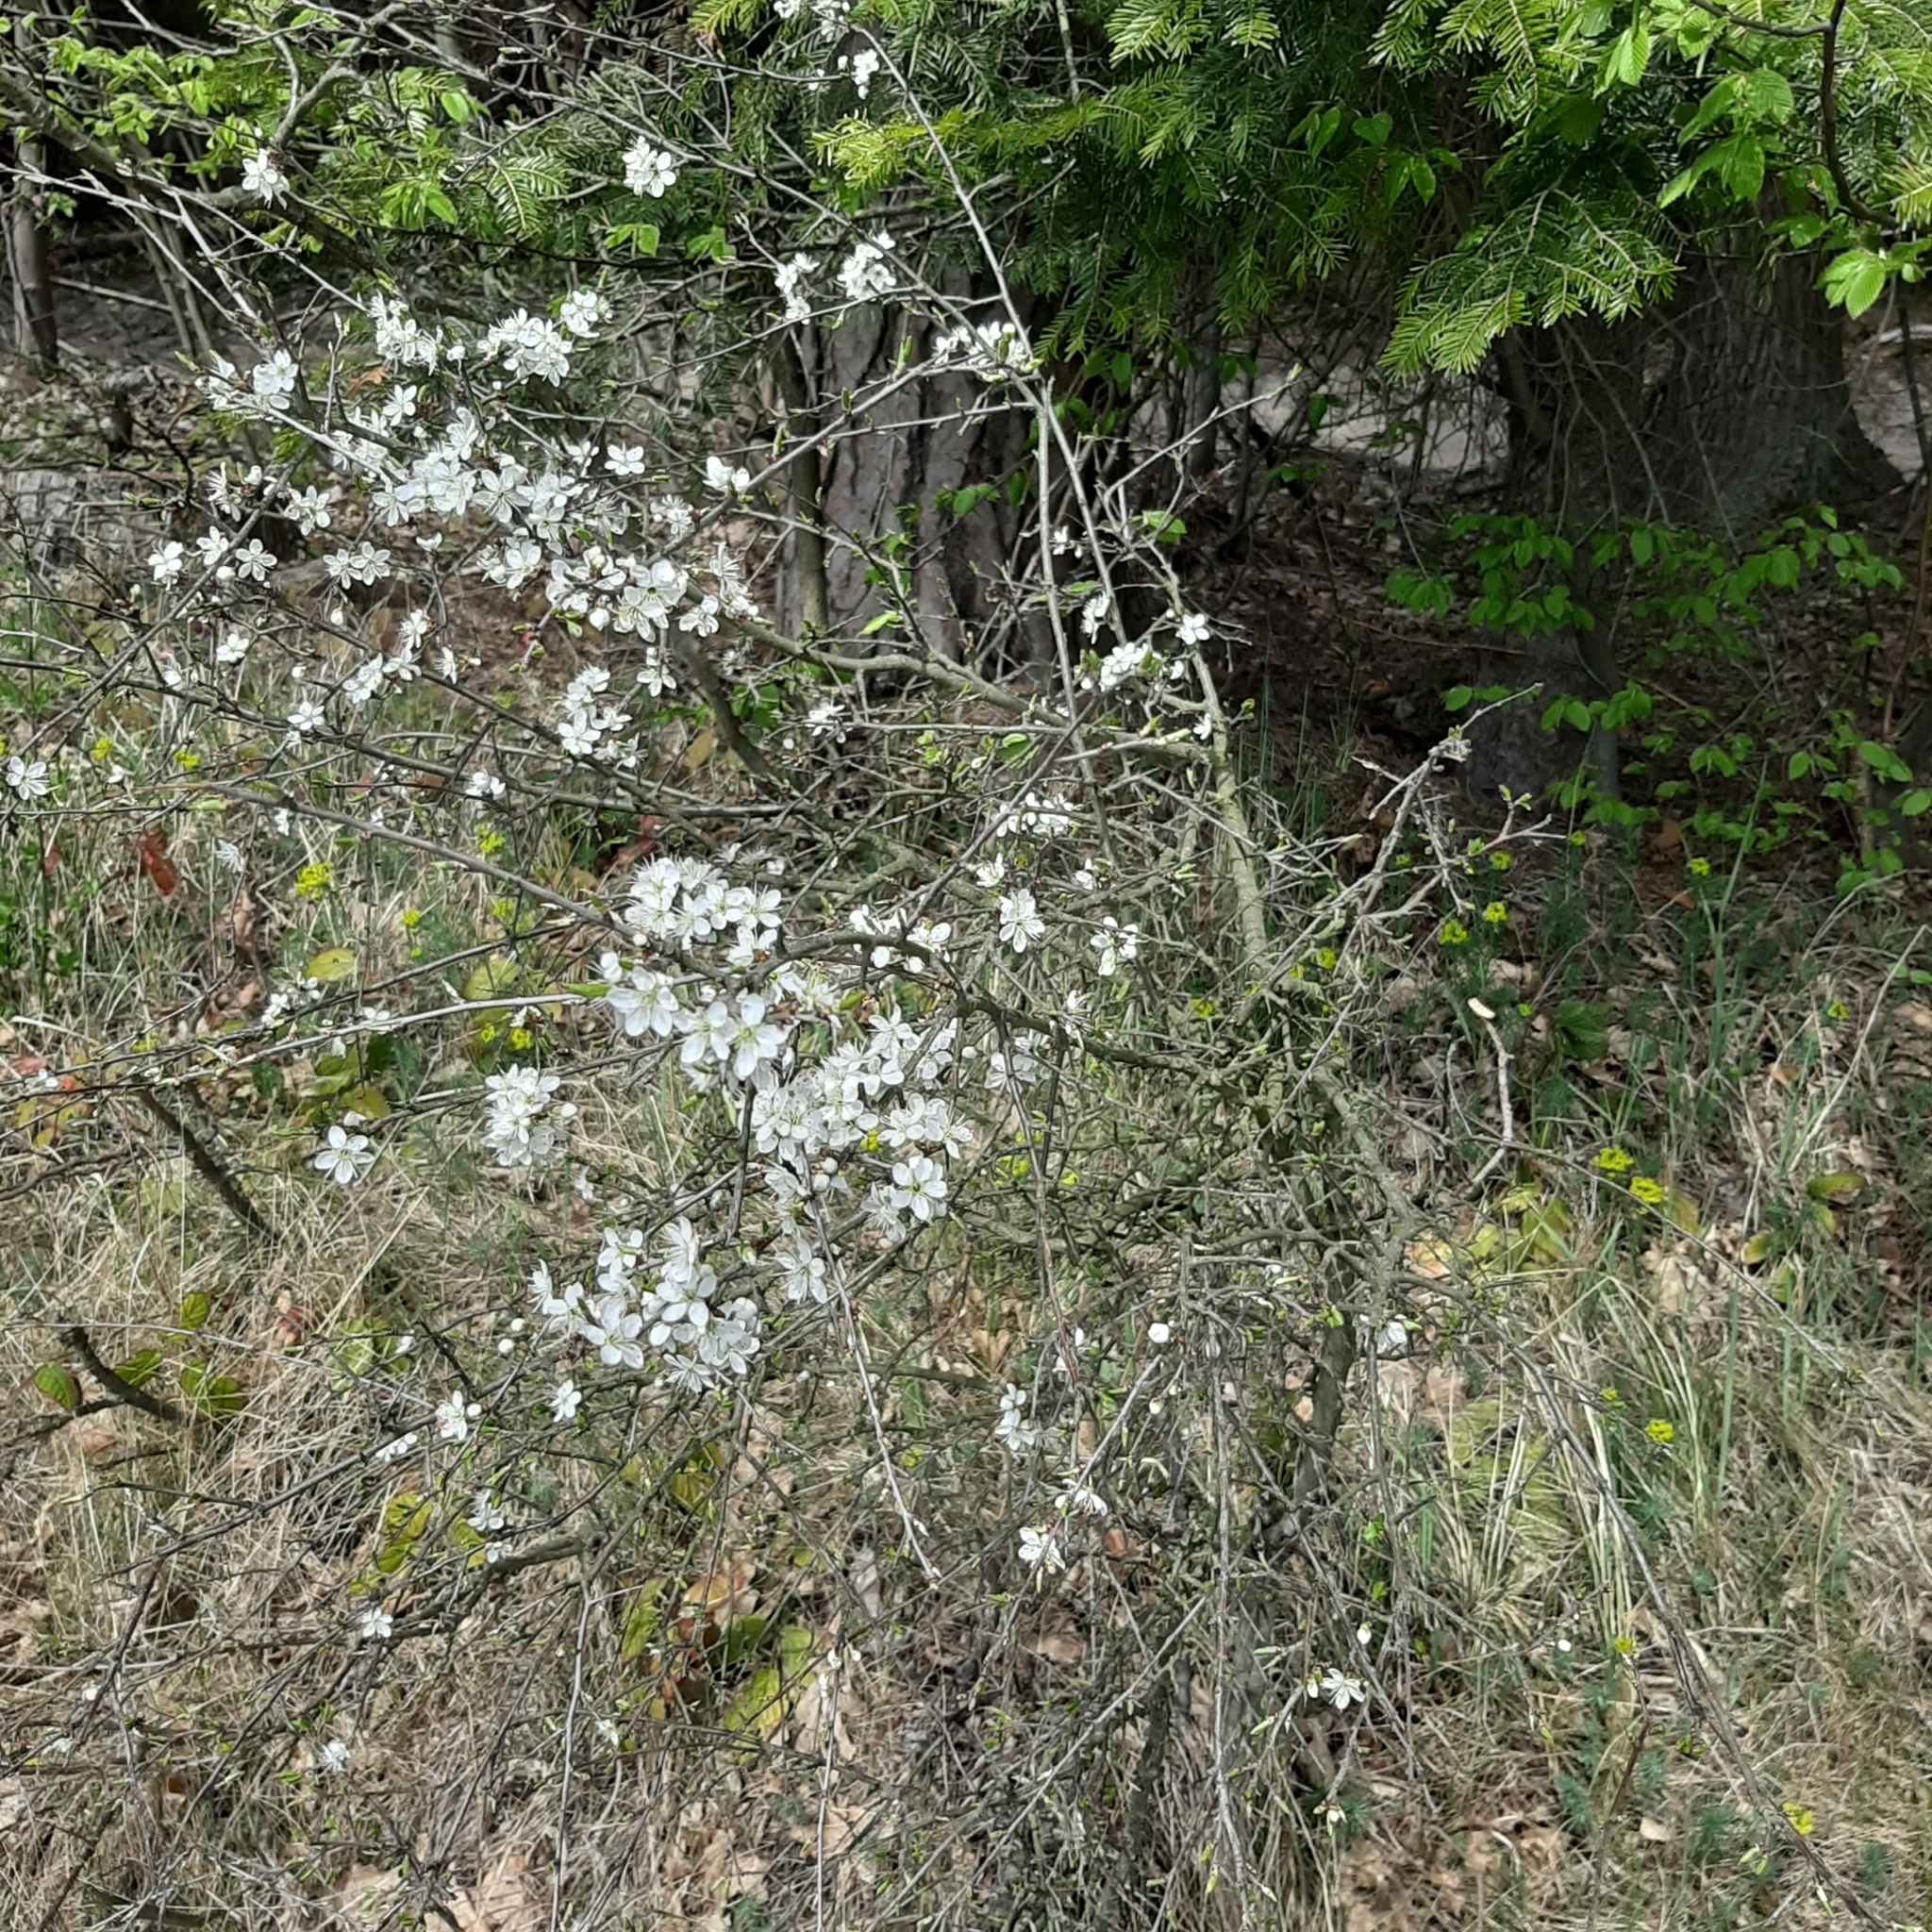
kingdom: Plantae
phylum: Tracheophyta
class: Magnoliopsida
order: Rosales
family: Rosaceae
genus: Prunus
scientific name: Prunus spinosa
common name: Blackthorn
